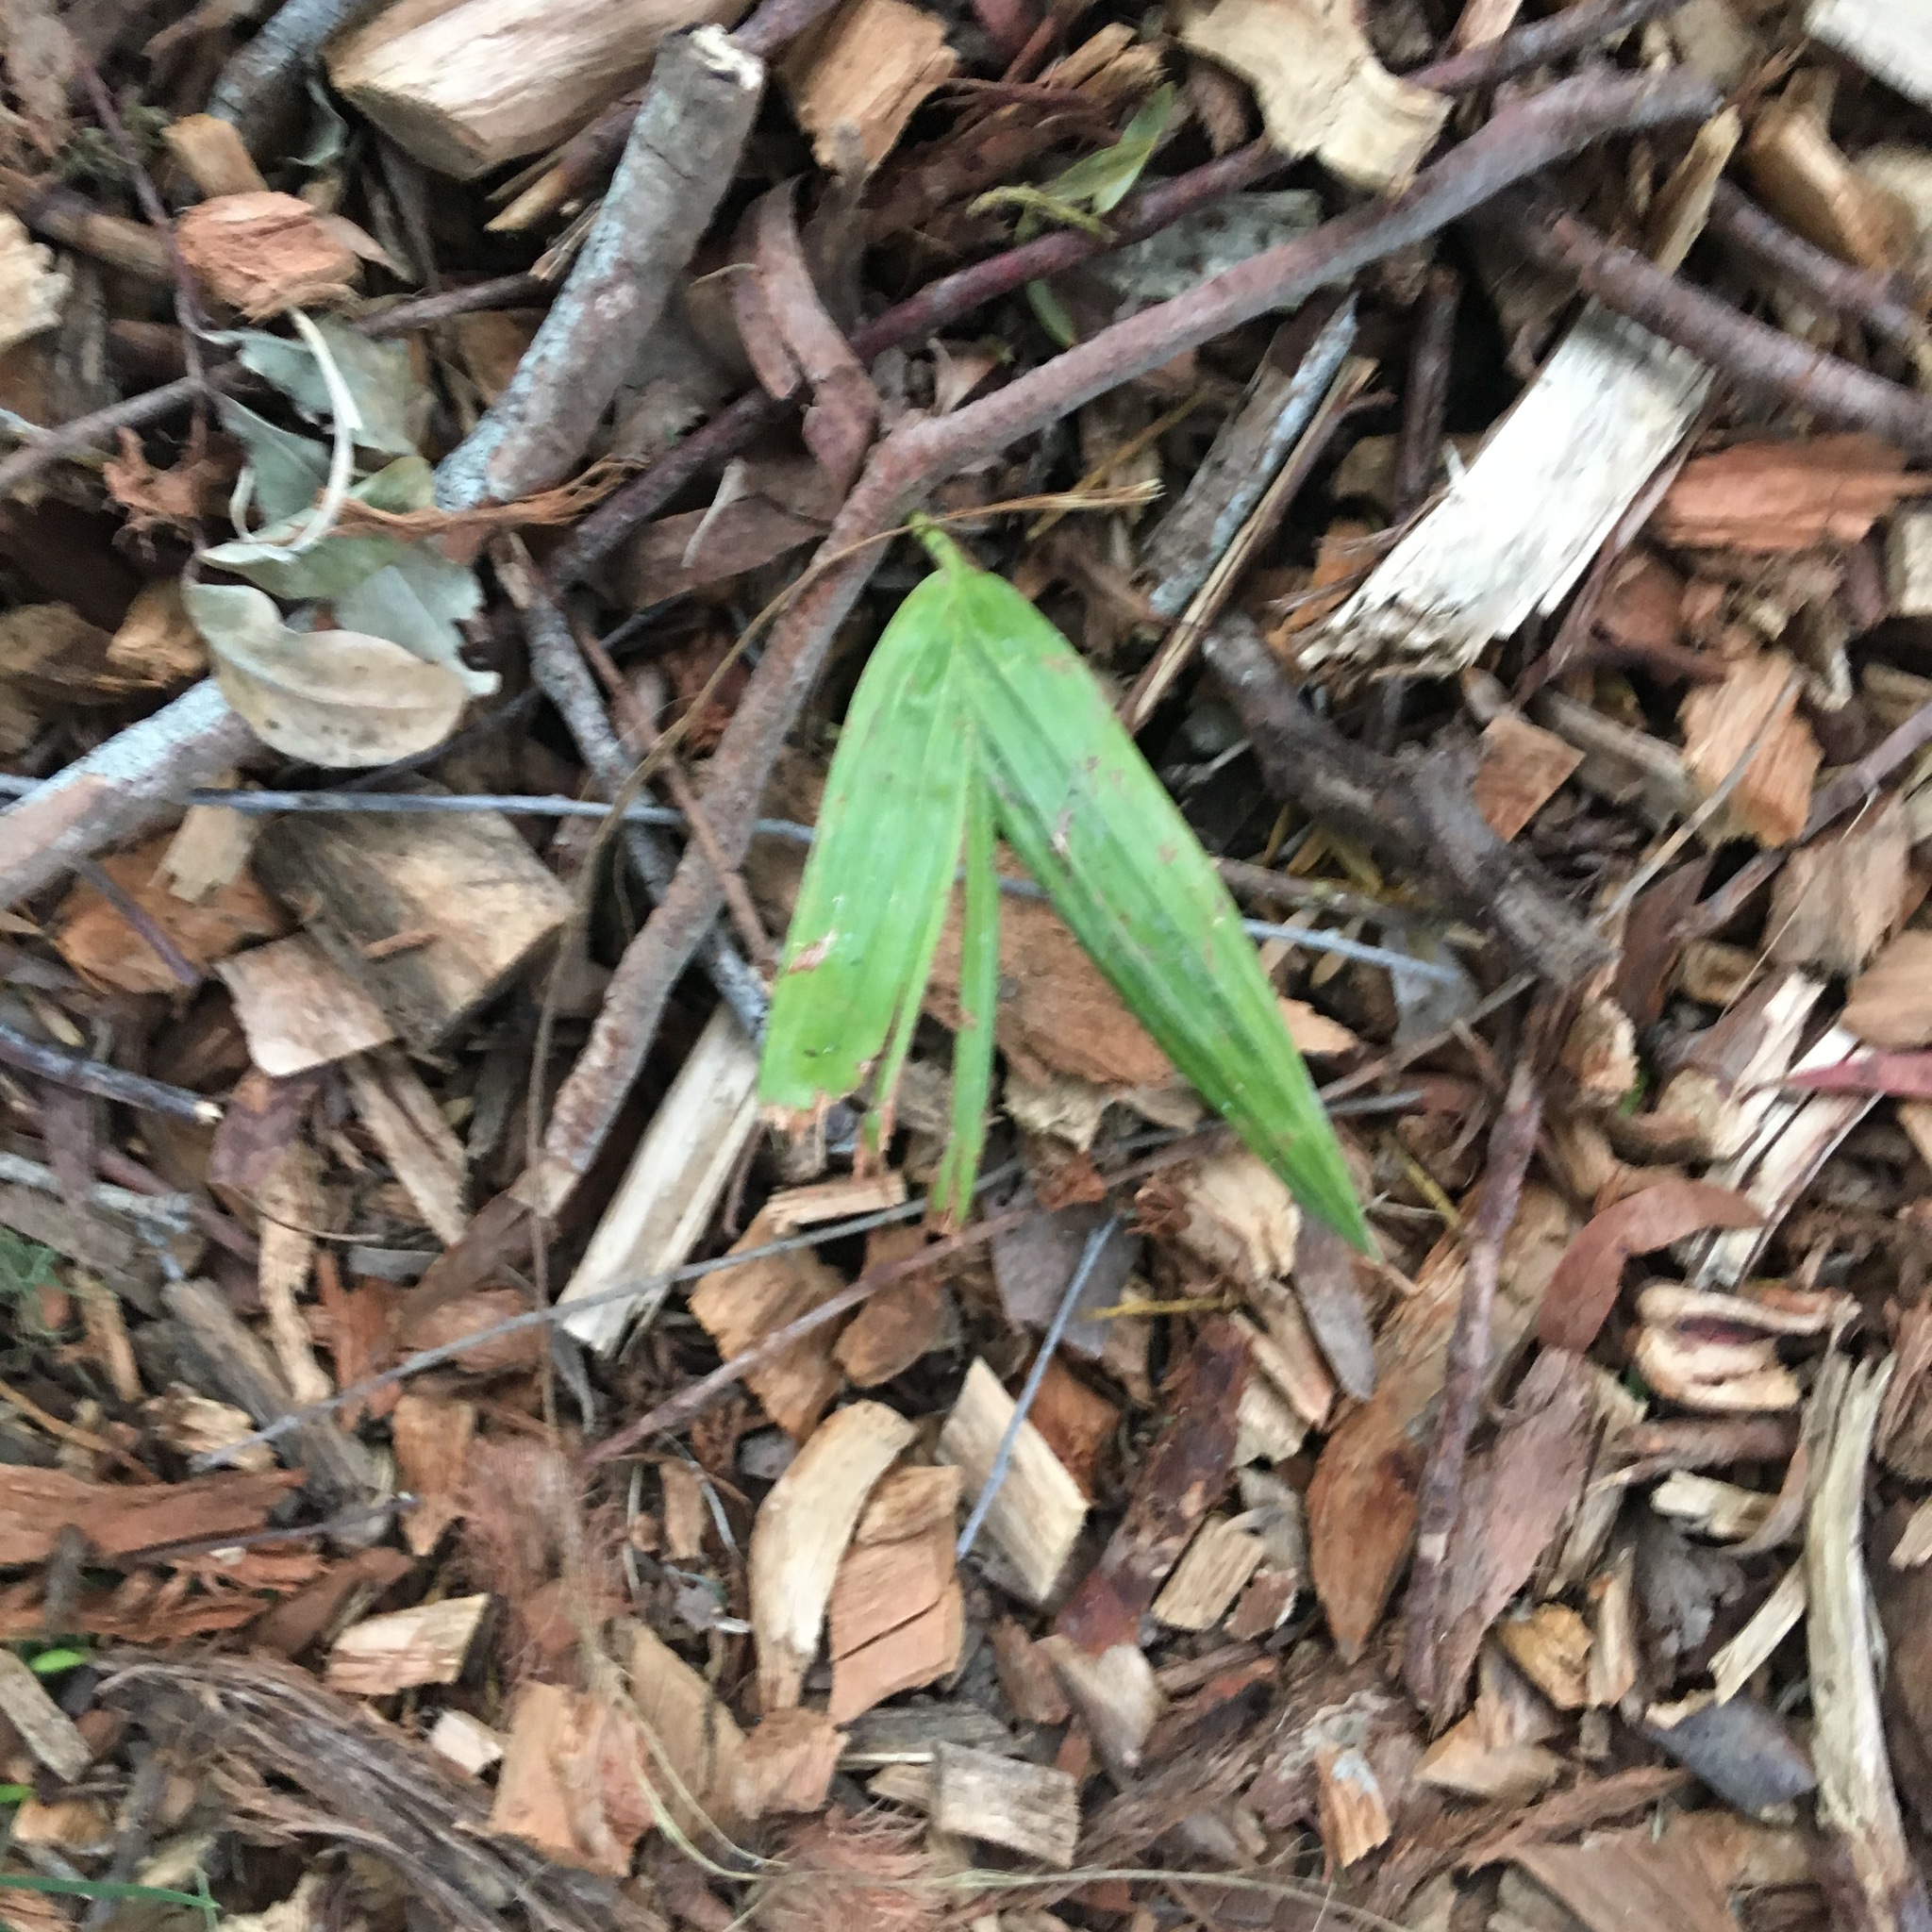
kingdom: Plantae
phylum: Tracheophyta
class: Liliopsida
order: Arecales
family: Arecaceae
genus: Archontophoenix
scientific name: Archontophoenix cunninghamiana
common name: Piccabeen bangalow palm
